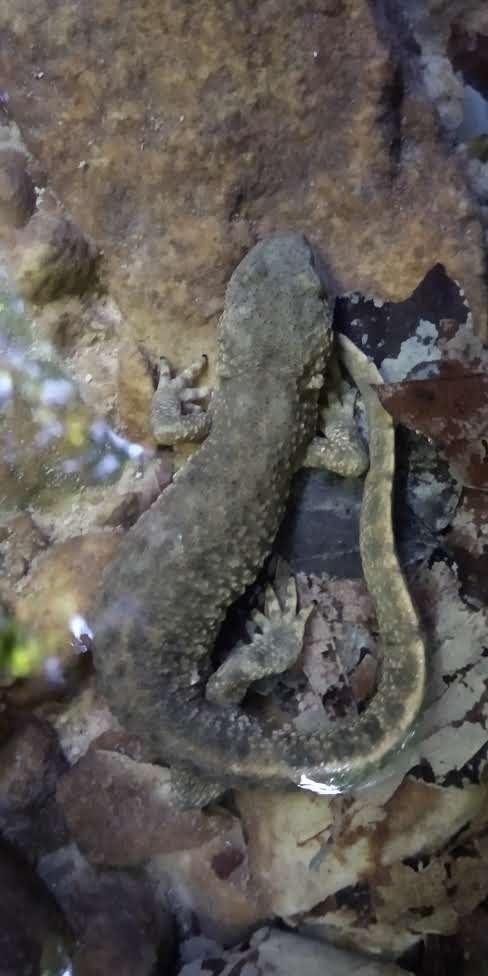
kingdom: Animalia
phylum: Chordata
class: Amphibia
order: Caudata
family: Salamandridae
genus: Calotriton
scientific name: Calotriton asper
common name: Pyrenean brook salamander
